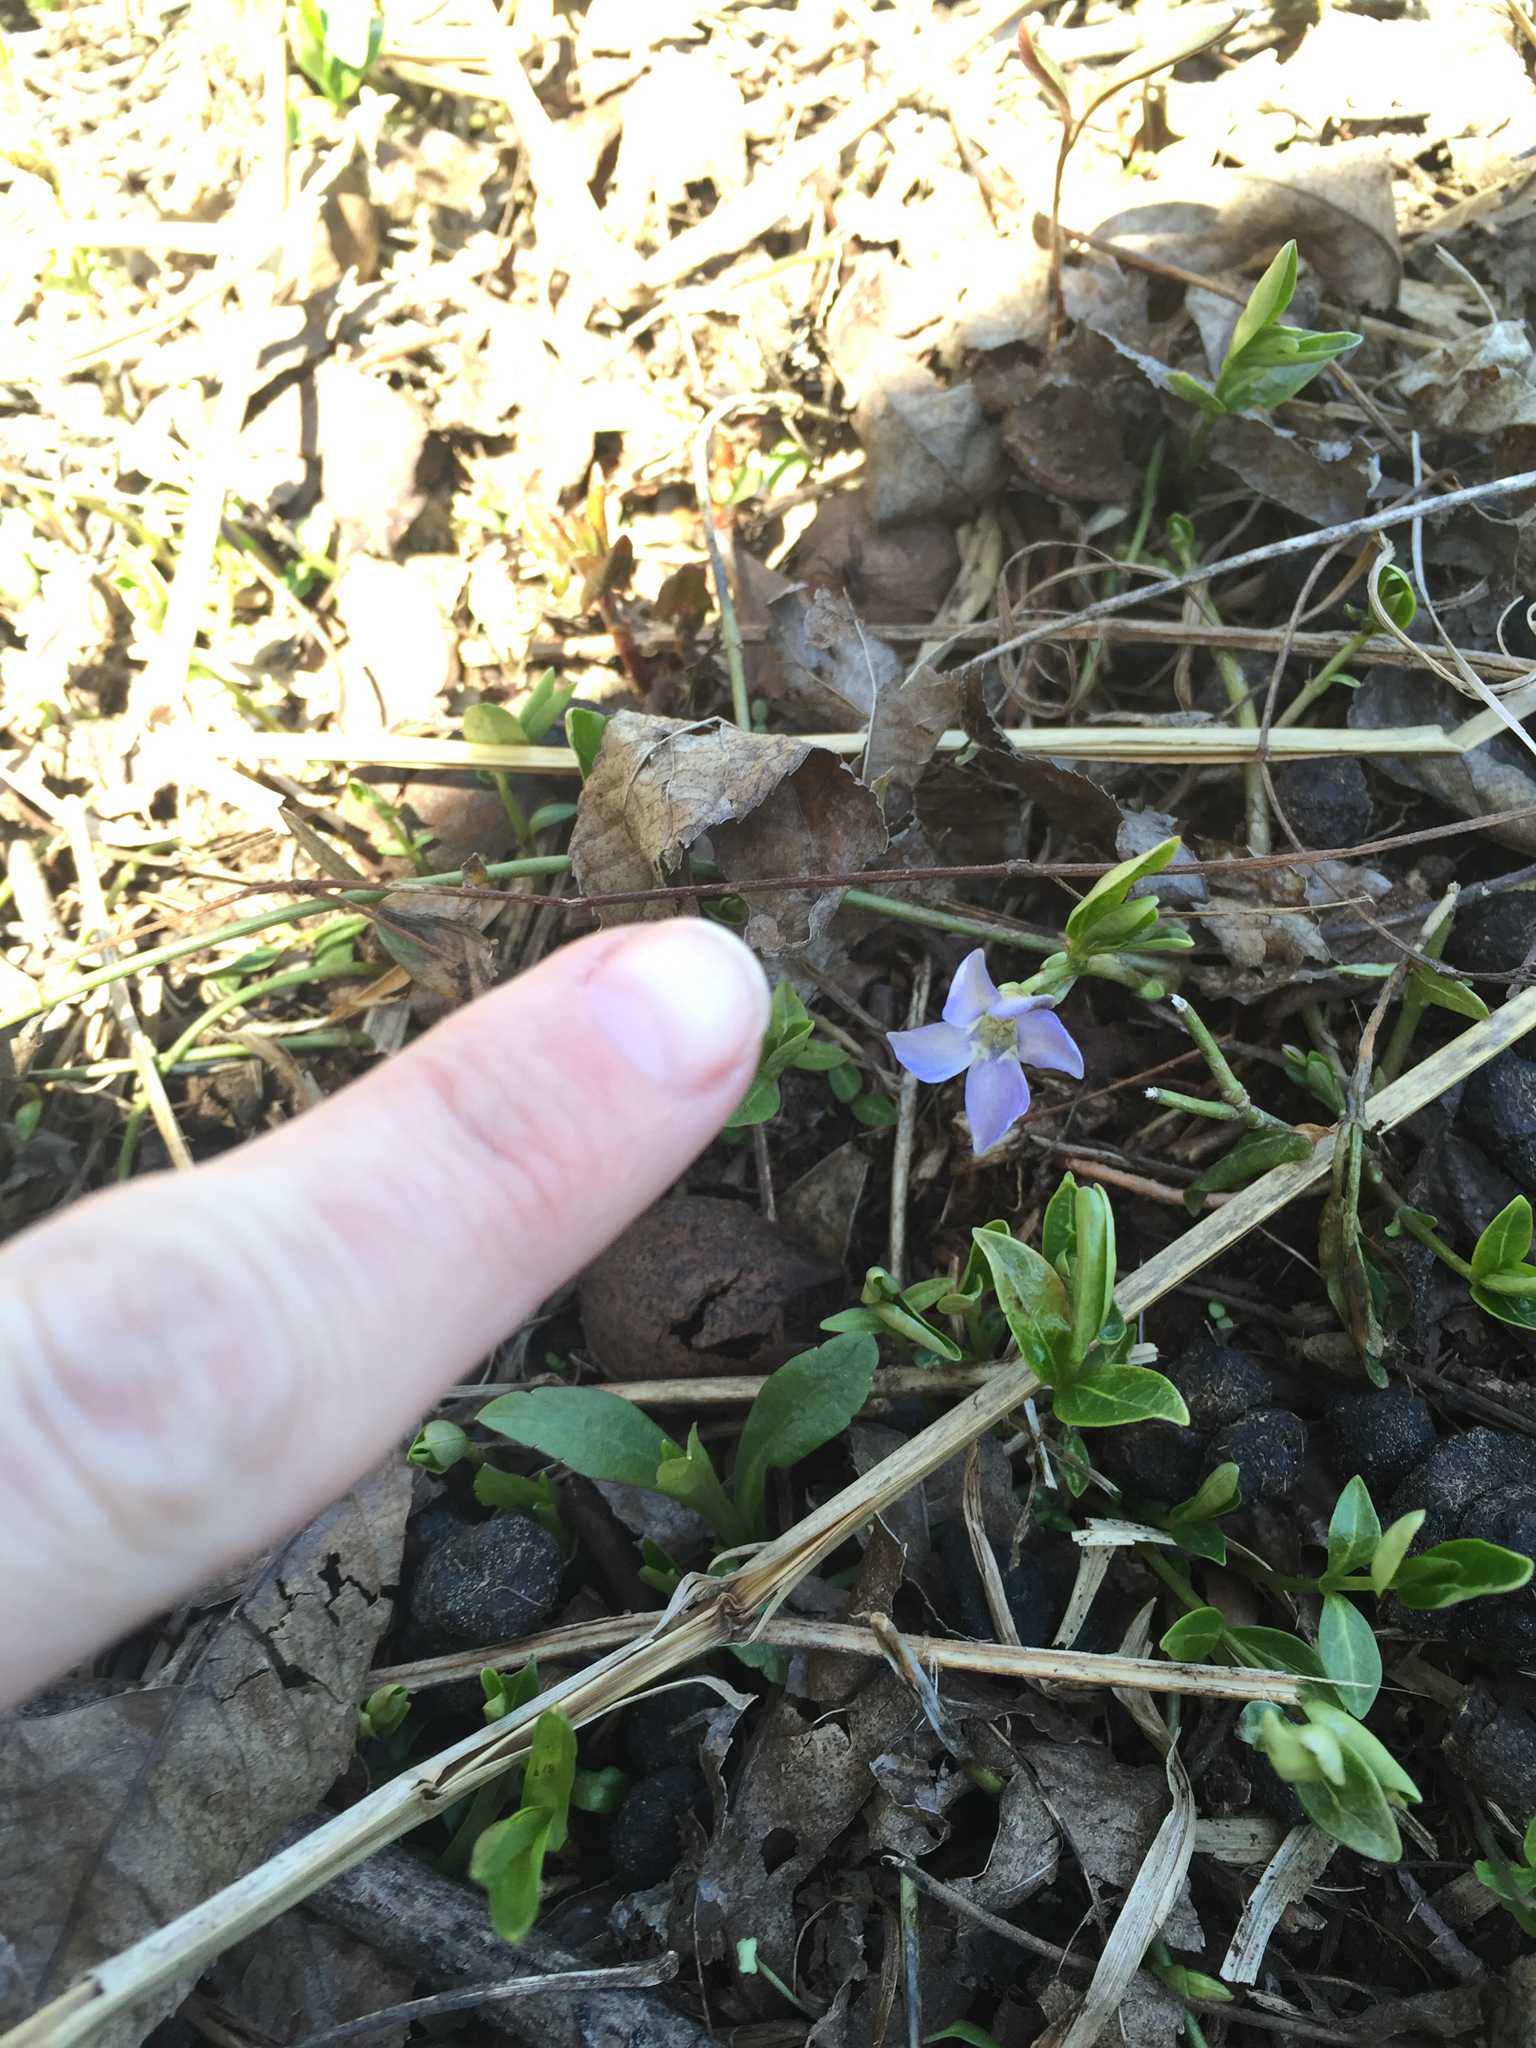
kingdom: Plantae
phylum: Tracheophyta
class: Magnoliopsida
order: Gentianales
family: Apocynaceae
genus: Vinca
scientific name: Vinca minor
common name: Lesser periwinkle
